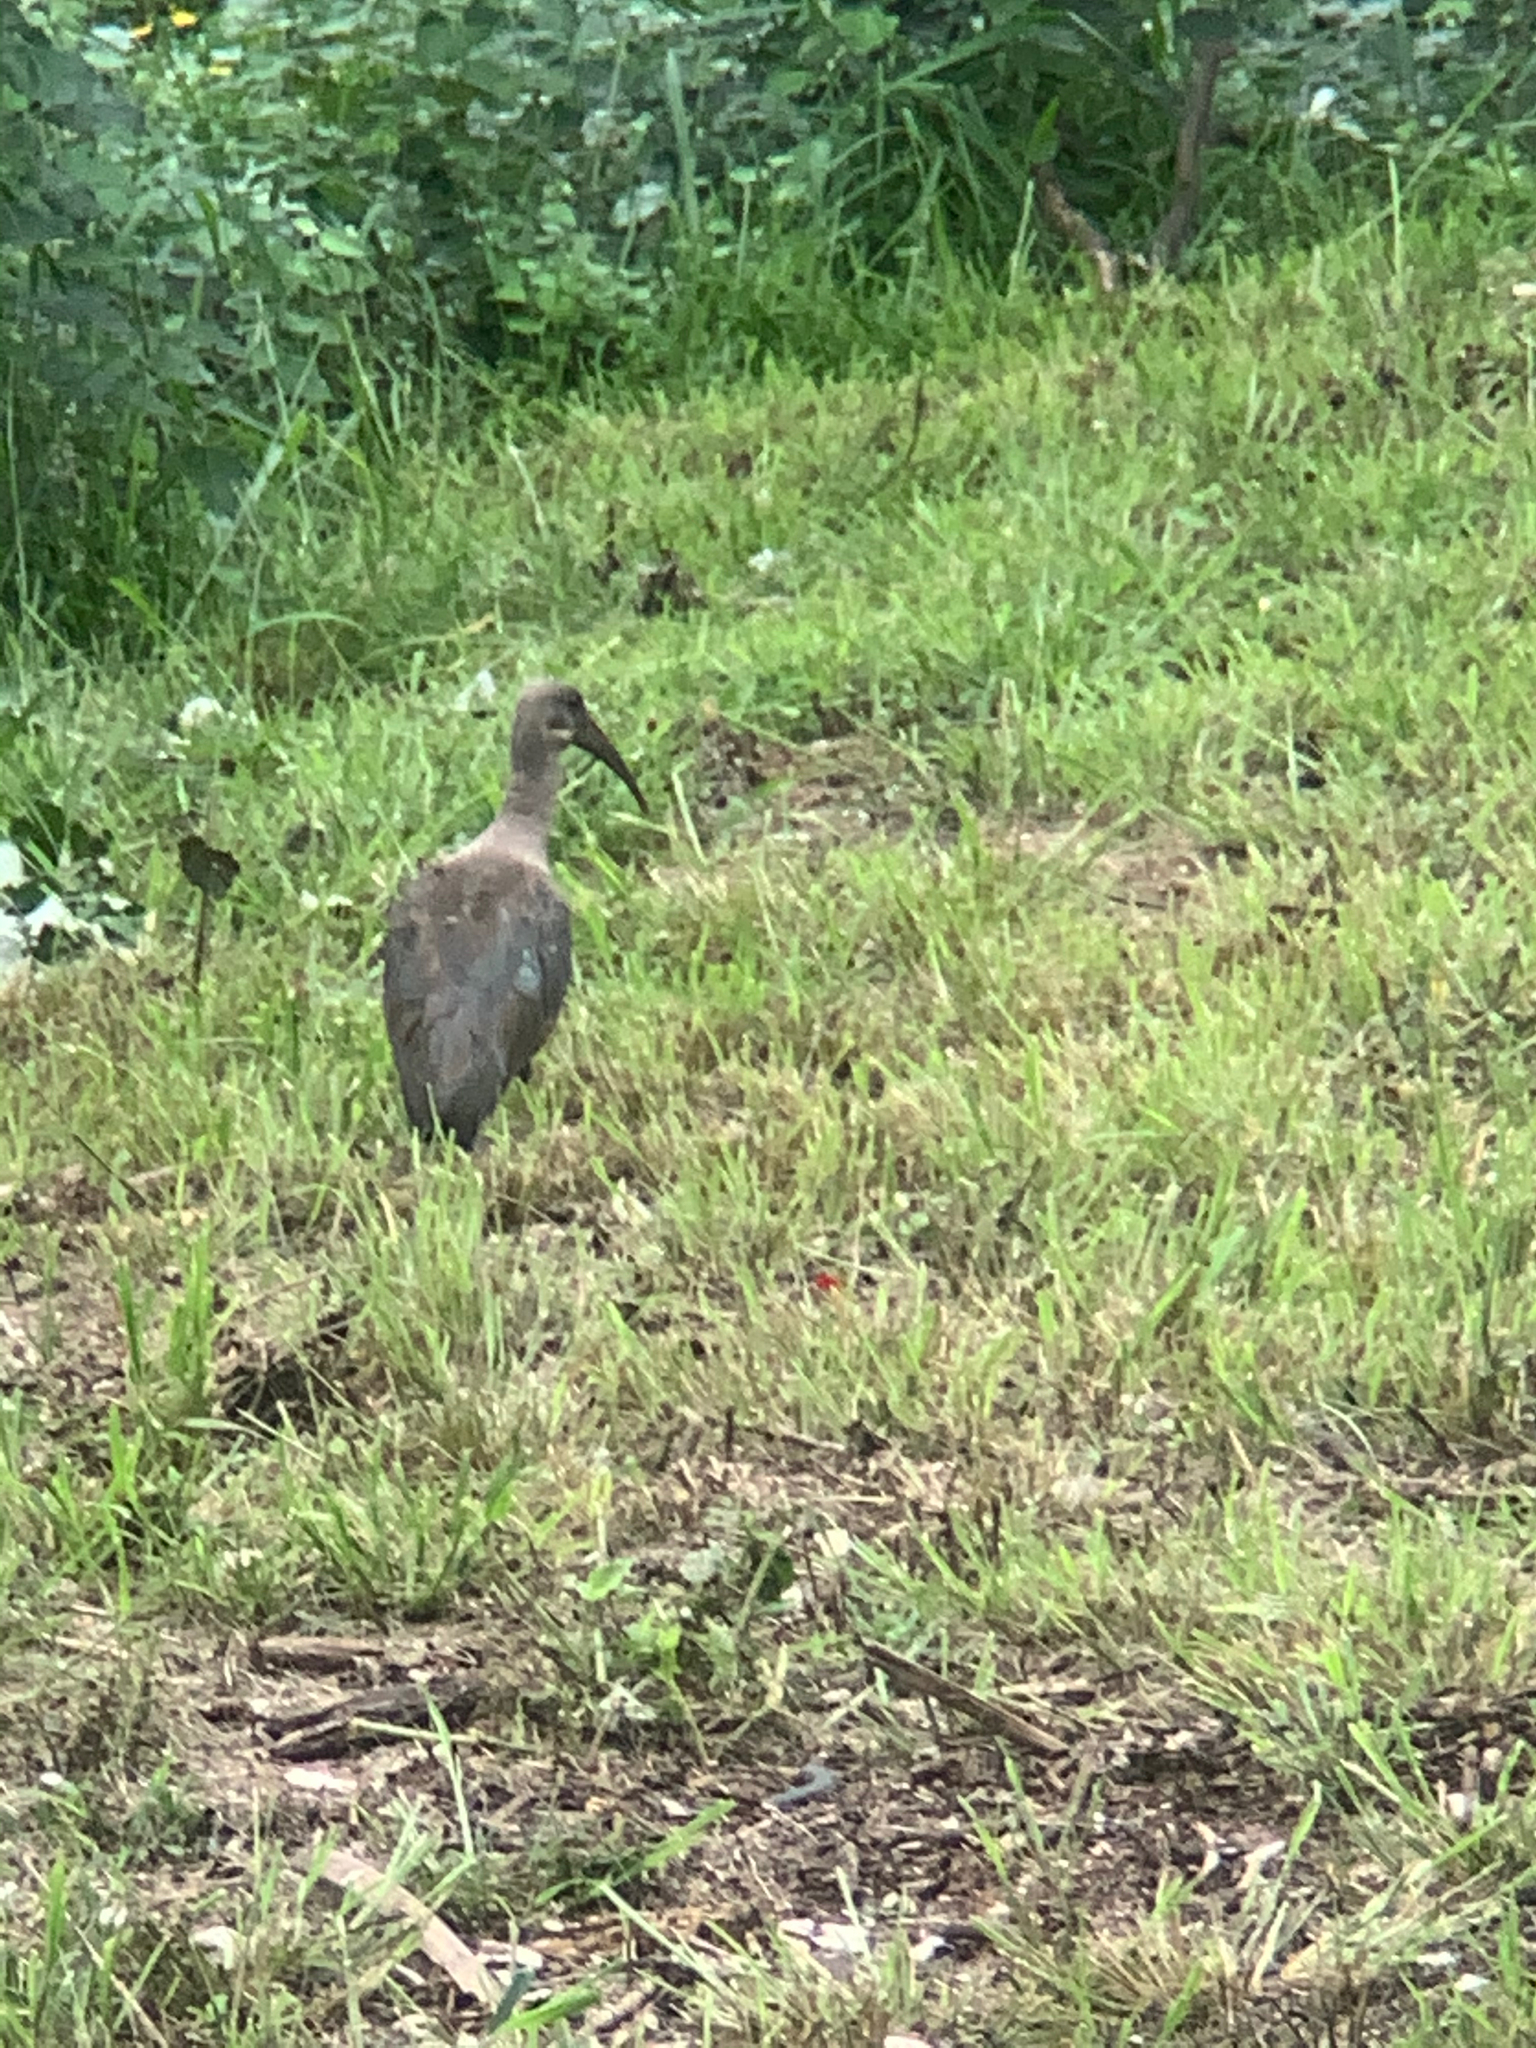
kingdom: Animalia
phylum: Chordata
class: Aves
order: Pelecaniformes
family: Threskiornithidae
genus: Bostrychia
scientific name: Bostrychia hagedash
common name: Hadada ibis
